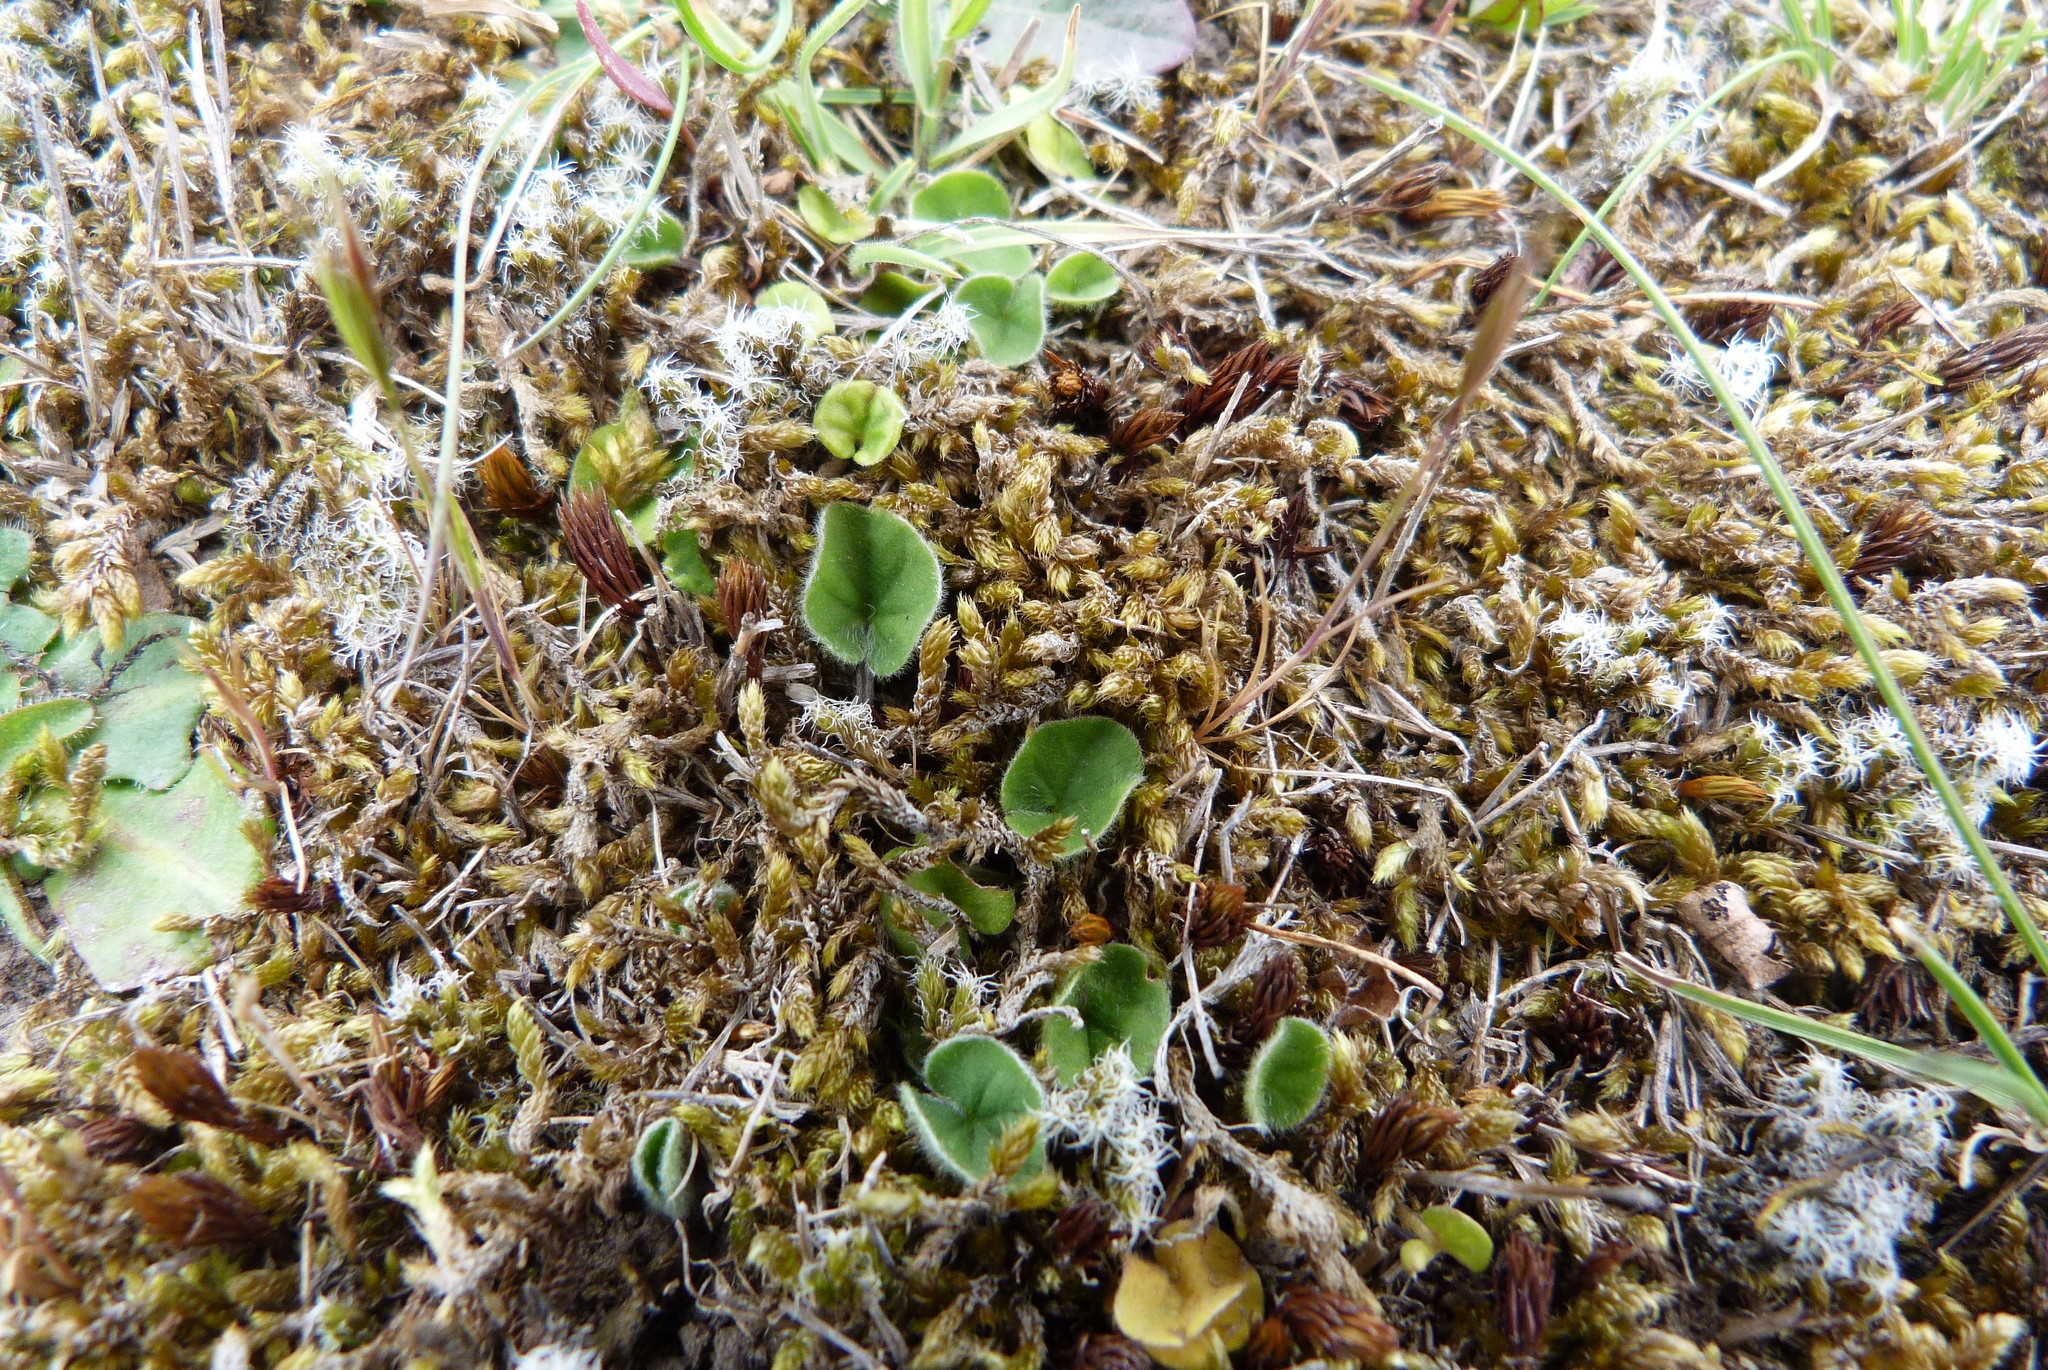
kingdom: Plantae
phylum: Tracheophyta
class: Magnoliopsida
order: Solanales
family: Convolvulaceae
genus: Dichondra
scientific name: Dichondra repens
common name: Kidneyweed
